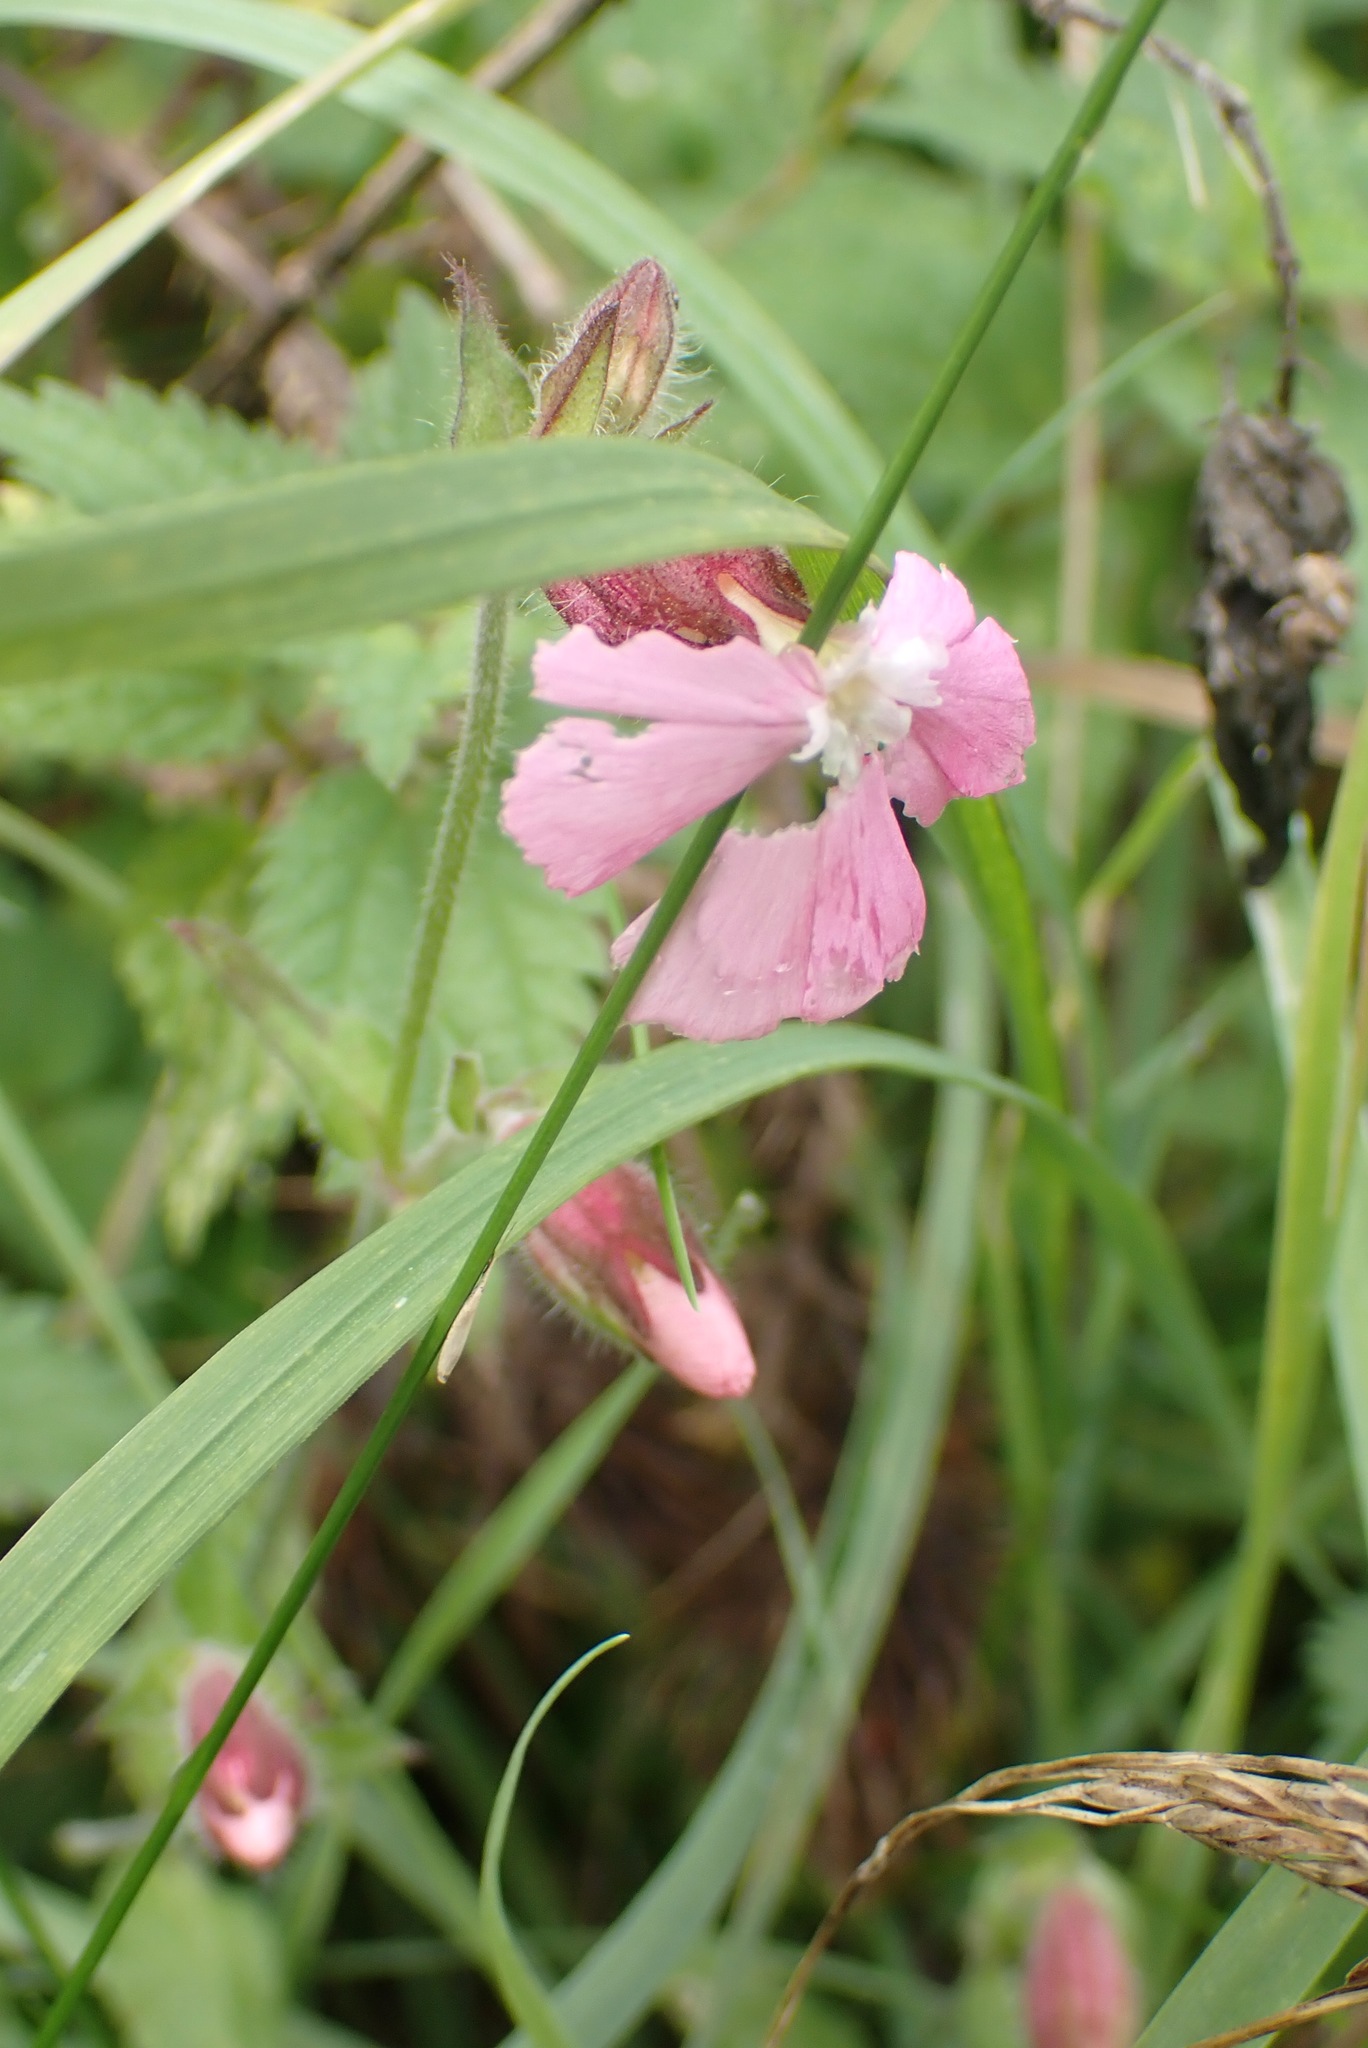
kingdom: Plantae
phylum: Tracheophyta
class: Magnoliopsida
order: Caryophyllales
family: Caryophyllaceae
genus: Silene
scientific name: Silene dioica
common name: Red campion
